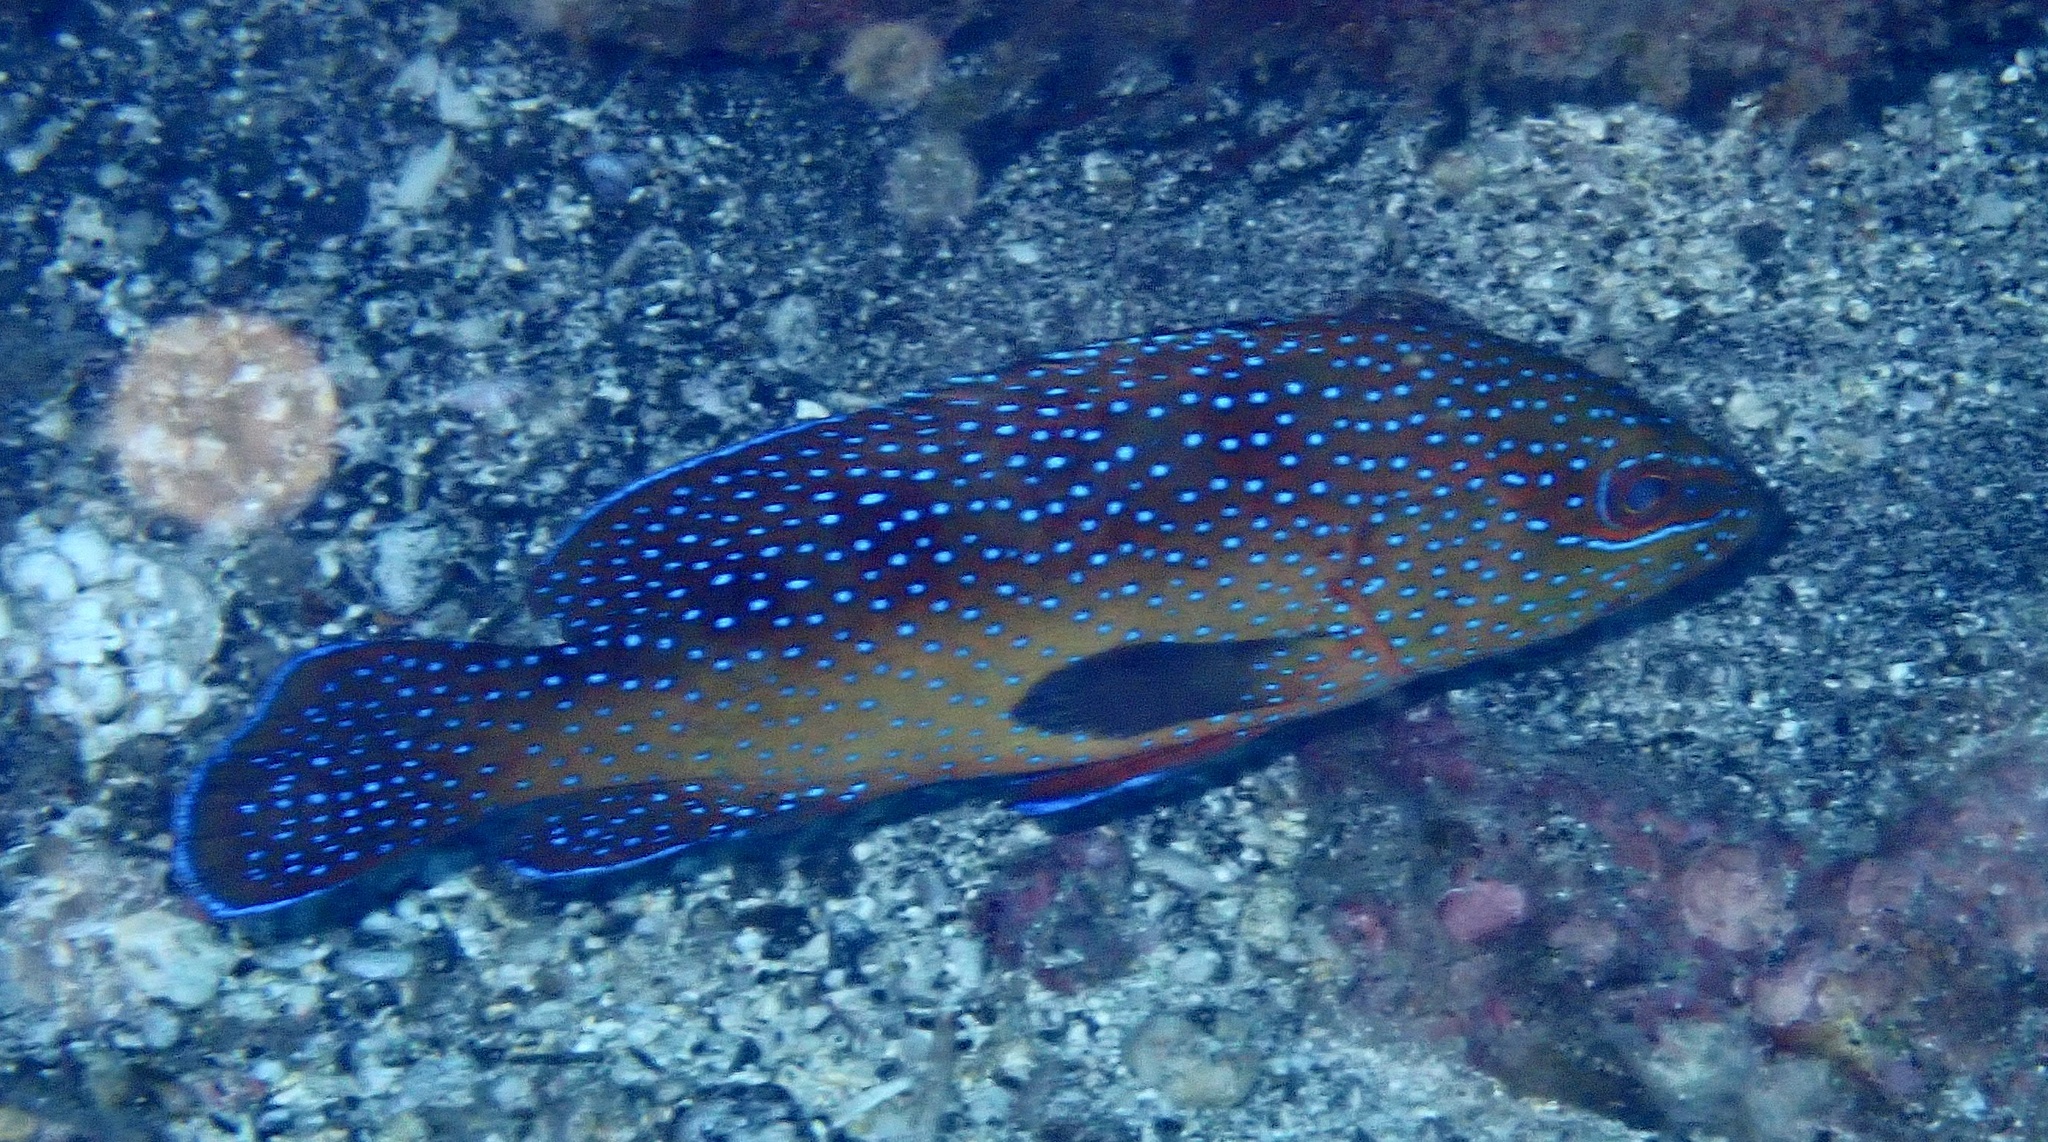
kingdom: Animalia
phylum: Chordata
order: Perciformes
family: Serranidae
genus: Cephalopholis
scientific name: Cephalopholis taeniops
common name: African hind
